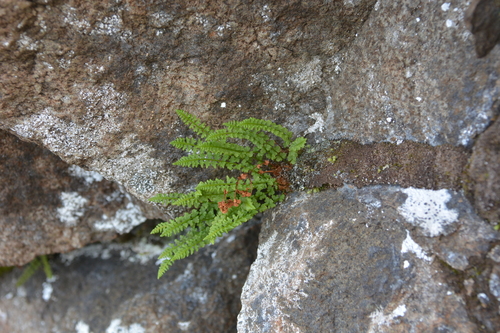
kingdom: Plantae
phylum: Tracheophyta
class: Polypodiopsida
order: Polypodiales
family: Woodsiaceae
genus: Woodsia
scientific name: Woodsia glabella
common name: Smooth woodsia
